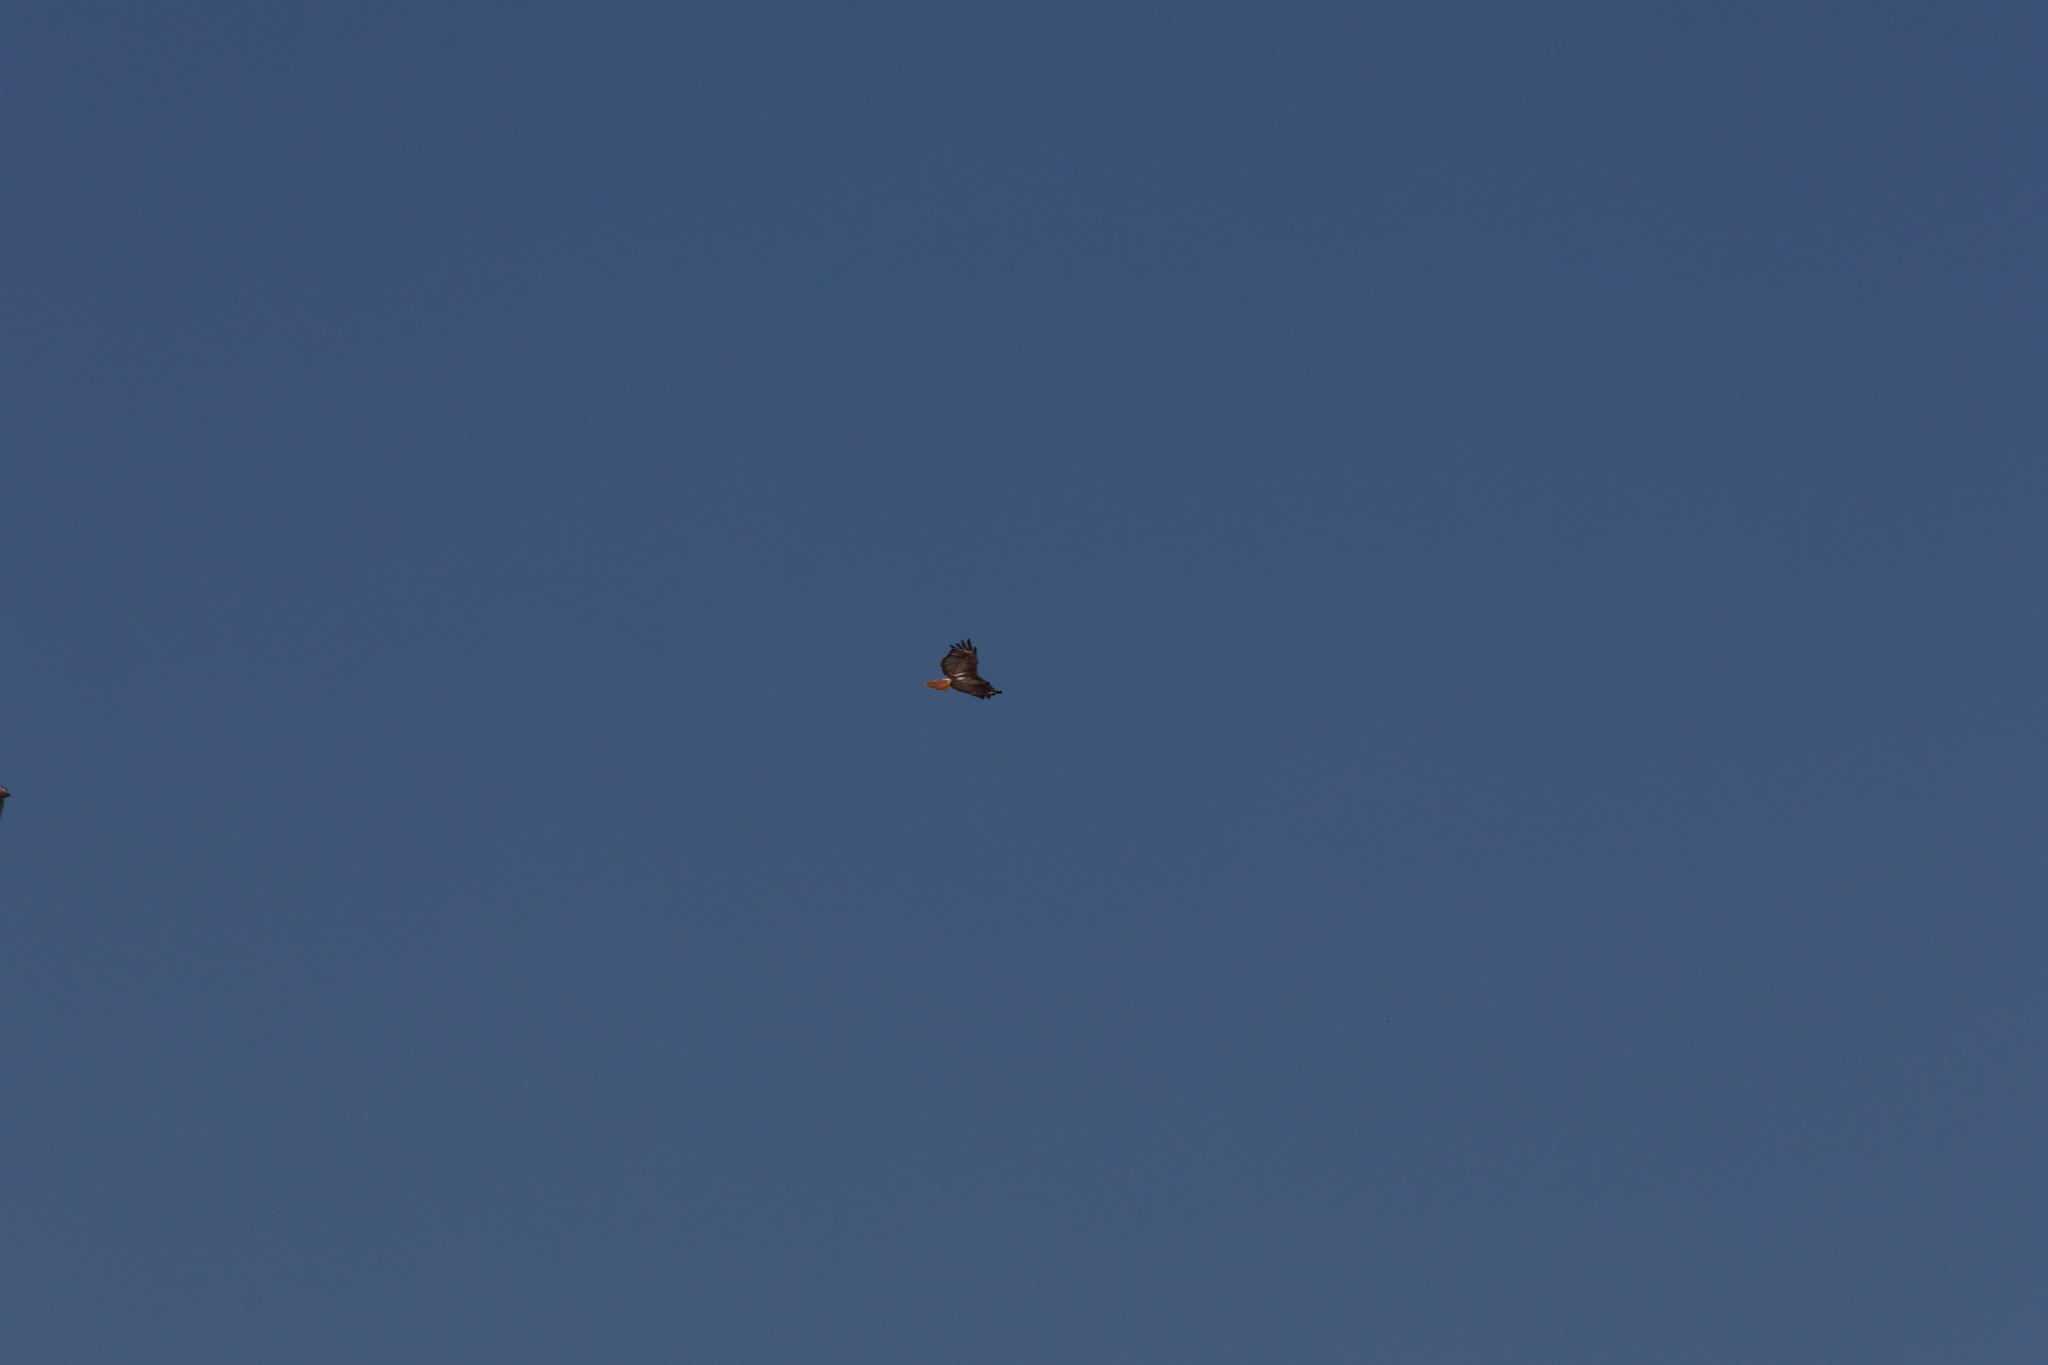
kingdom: Animalia
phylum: Chordata
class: Aves
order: Accipitriformes
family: Accipitridae
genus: Buteo
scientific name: Buteo jamaicensis
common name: Red-tailed hawk
